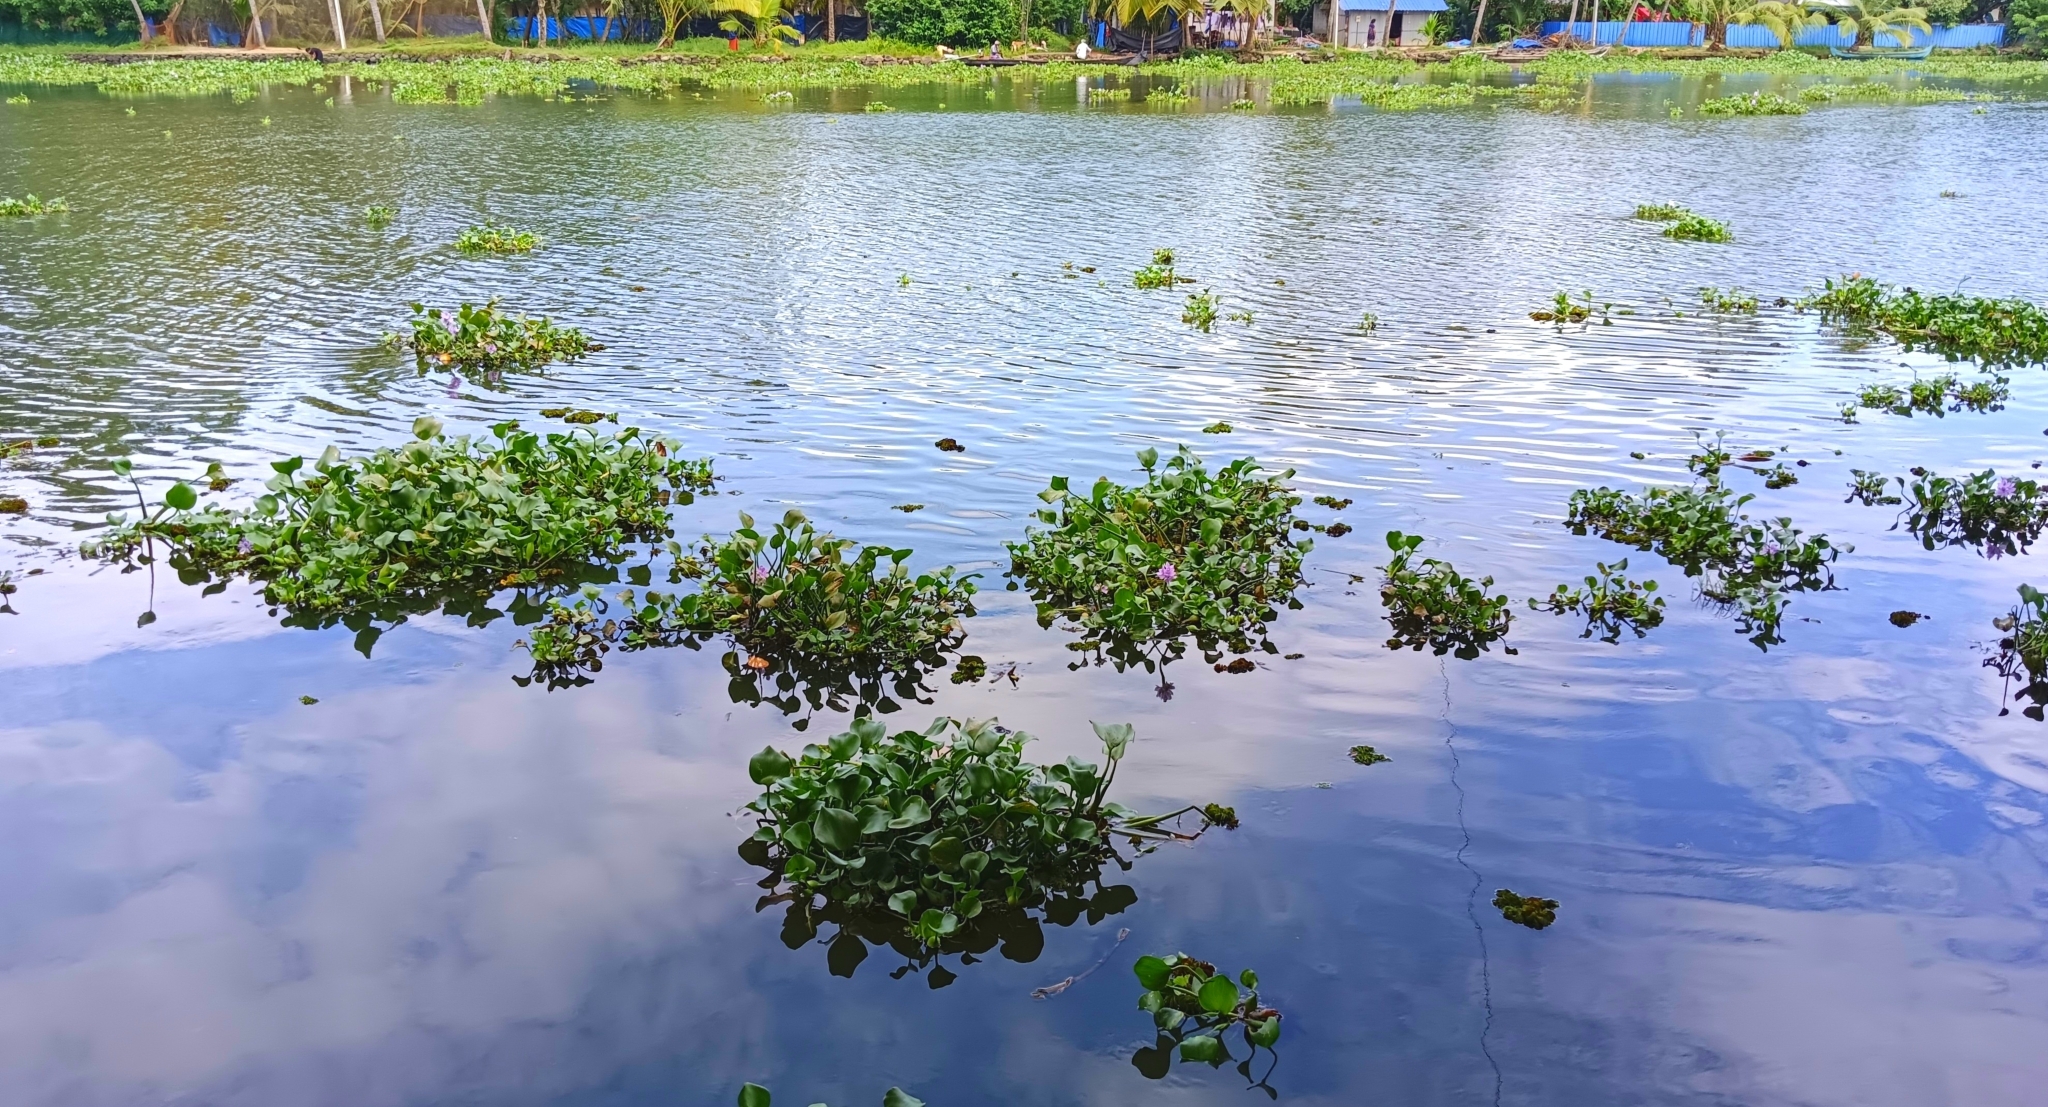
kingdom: Plantae
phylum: Tracheophyta
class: Liliopsida
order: Commelinales
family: Pontederiaceae
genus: Pontederia
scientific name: Pontederia crassipes
